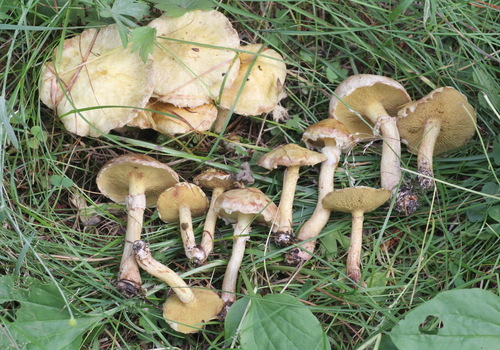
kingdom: Fungi
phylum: Basidiomycota
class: Agaricomycetes
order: Boletales
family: Suillaceae
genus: Suillus
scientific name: Suillus americanus
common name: Chicken fat mushroom
